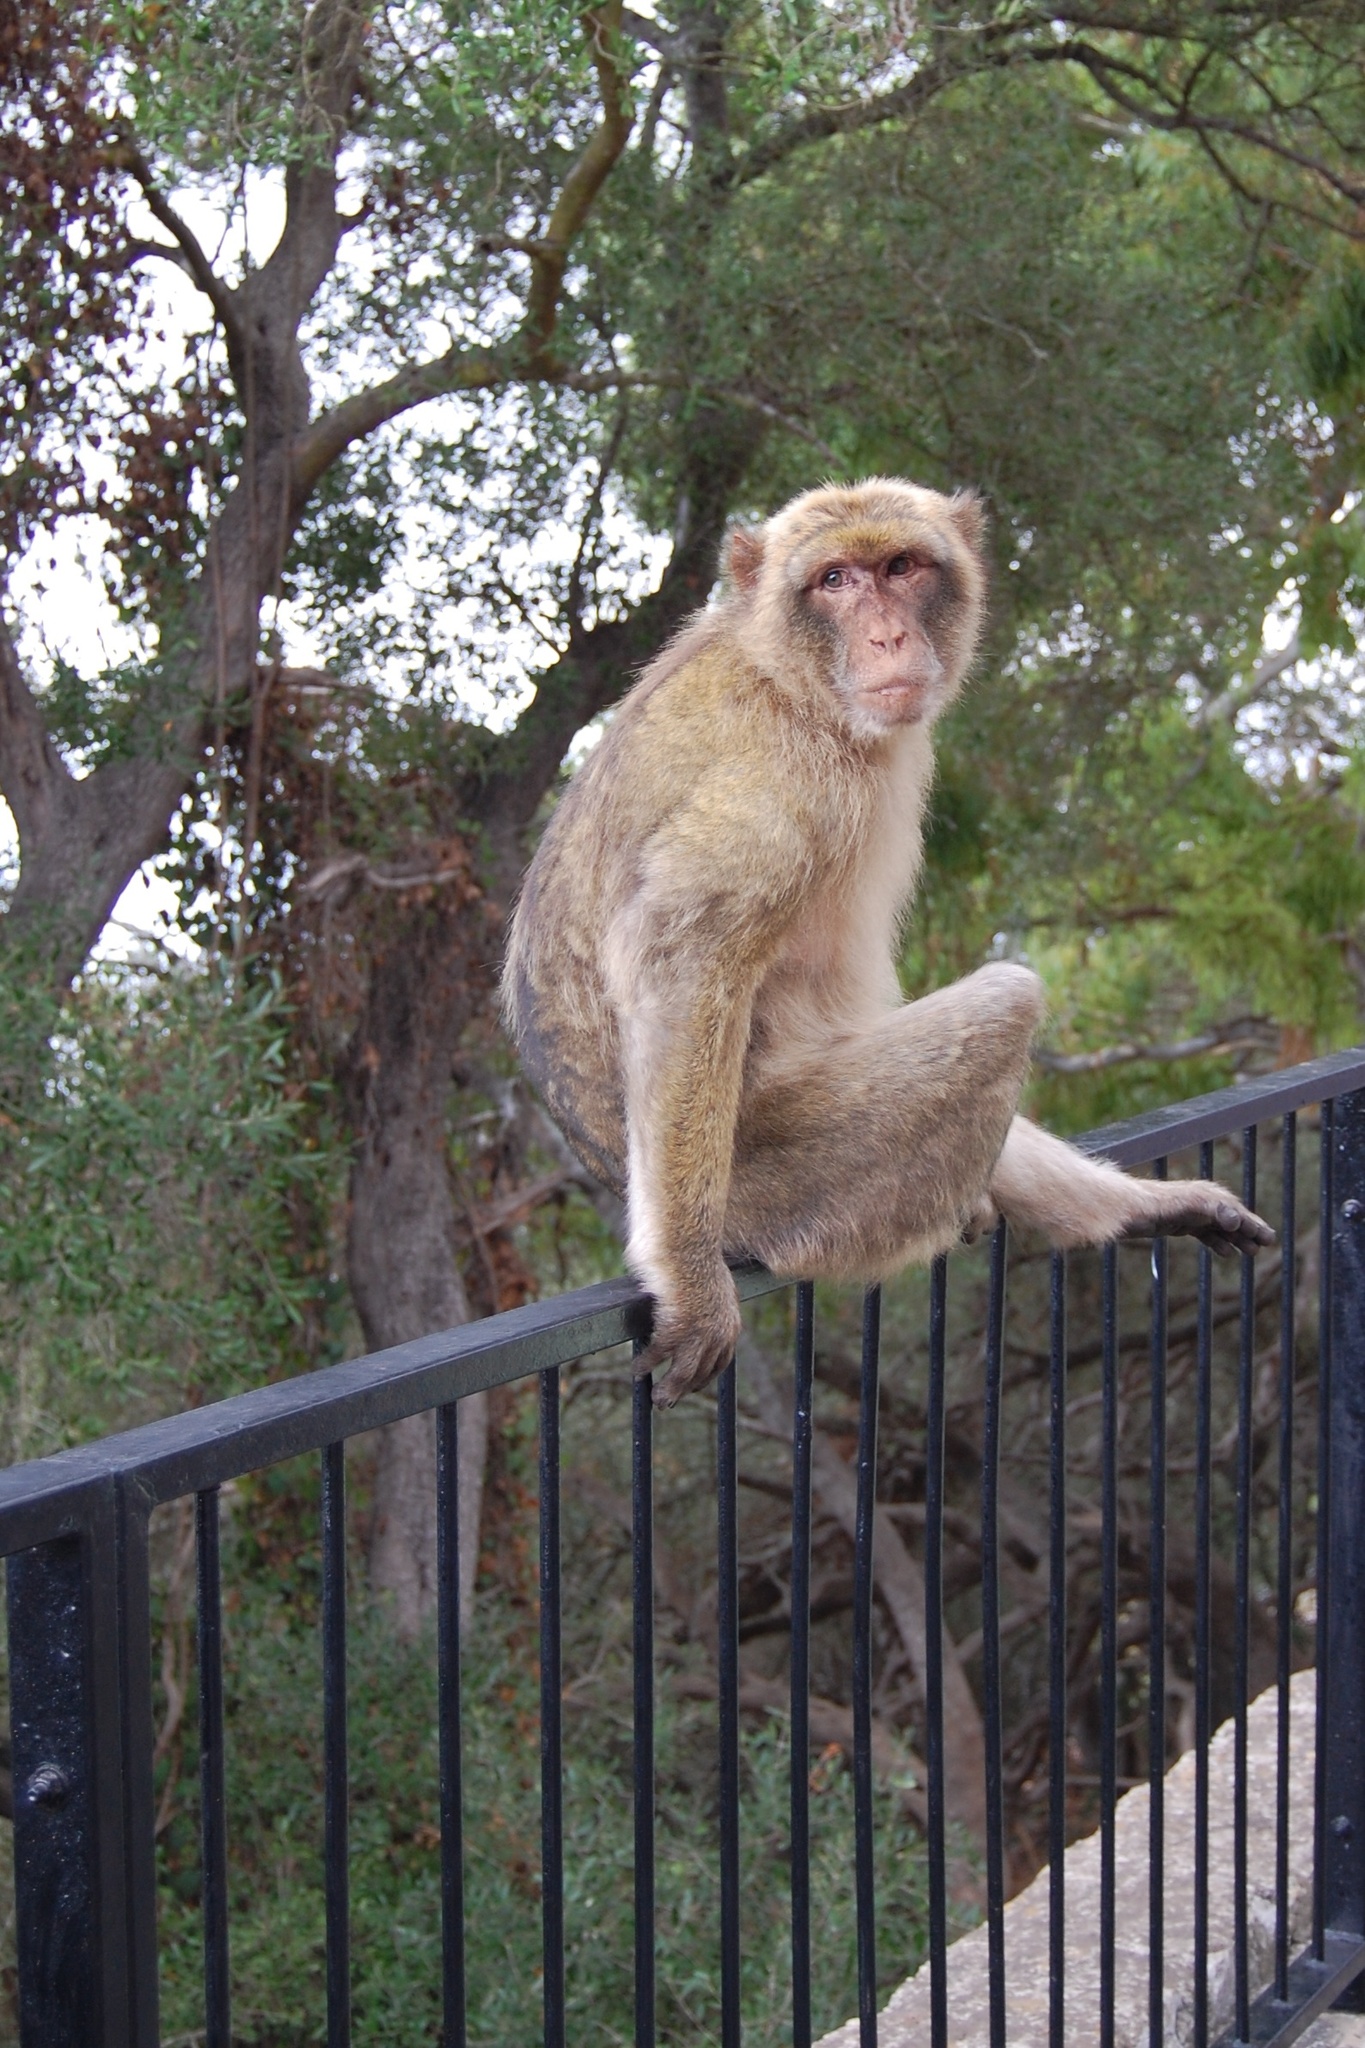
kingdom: Animalia
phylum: Chordata
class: Mammalia
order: Primates
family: Cercopithecidae
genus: Macaca
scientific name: Macaca sylvanus
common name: Barbary macaque
